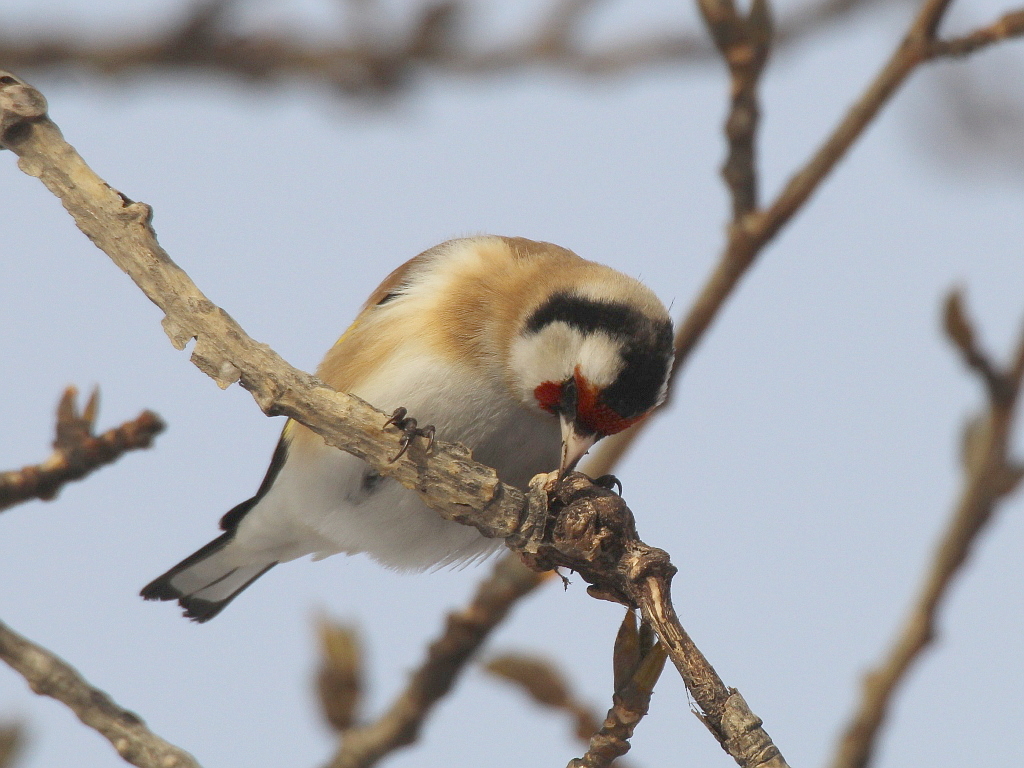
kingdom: Animalia
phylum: Chordata
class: Aves
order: Passeriformes
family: Fringillidae
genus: Carduelis
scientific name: Carduelis carduelis
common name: European goldfinch
